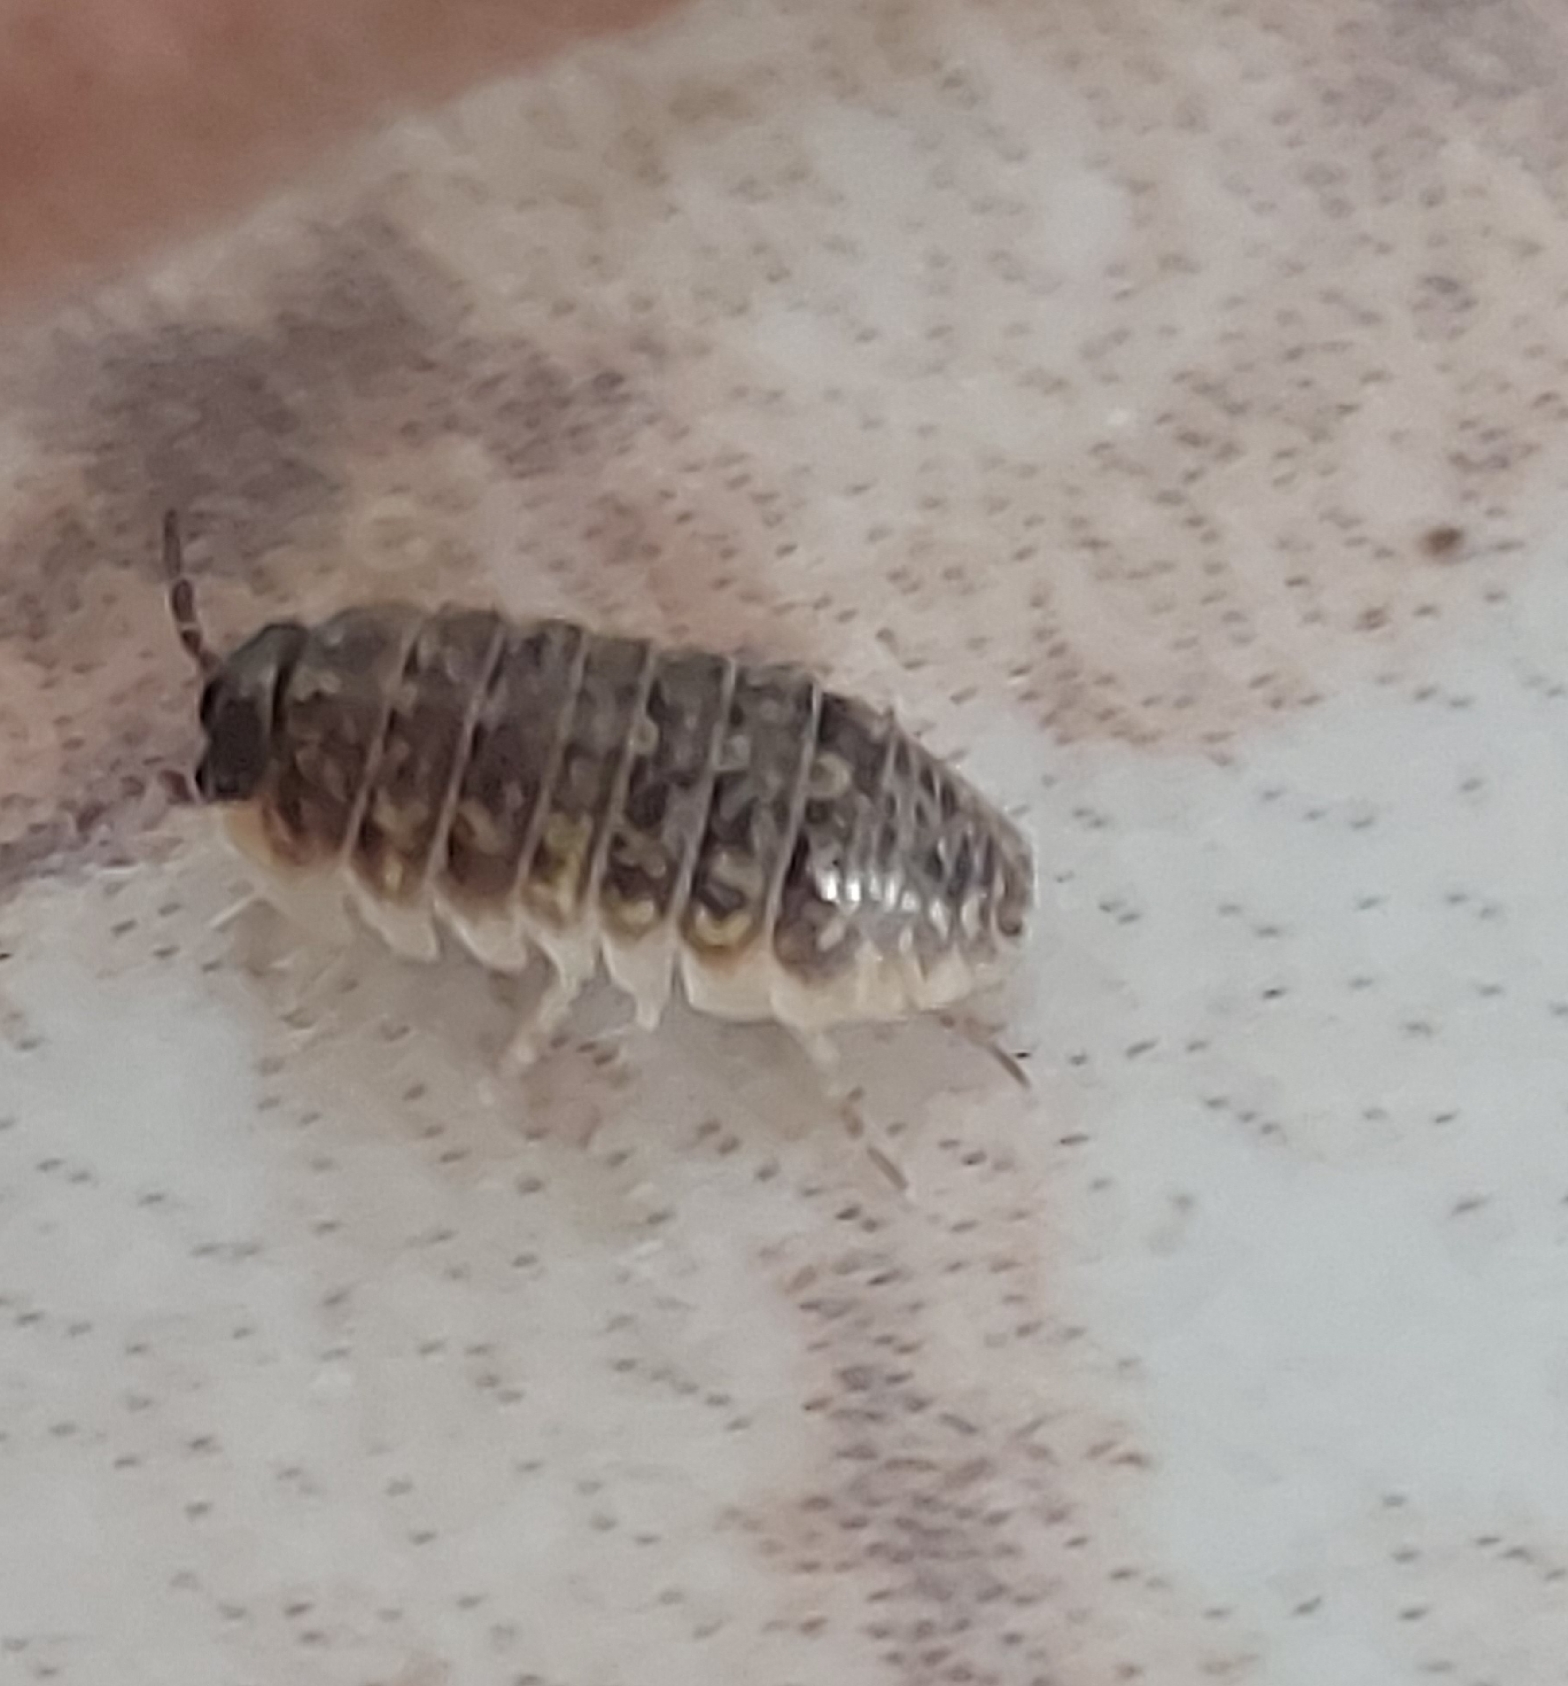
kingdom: Animalia
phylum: Arthropoda
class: Malacostraca
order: Isopoda
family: Armadillidiidae
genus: Armadillidium
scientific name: Armadillidium versicolor
